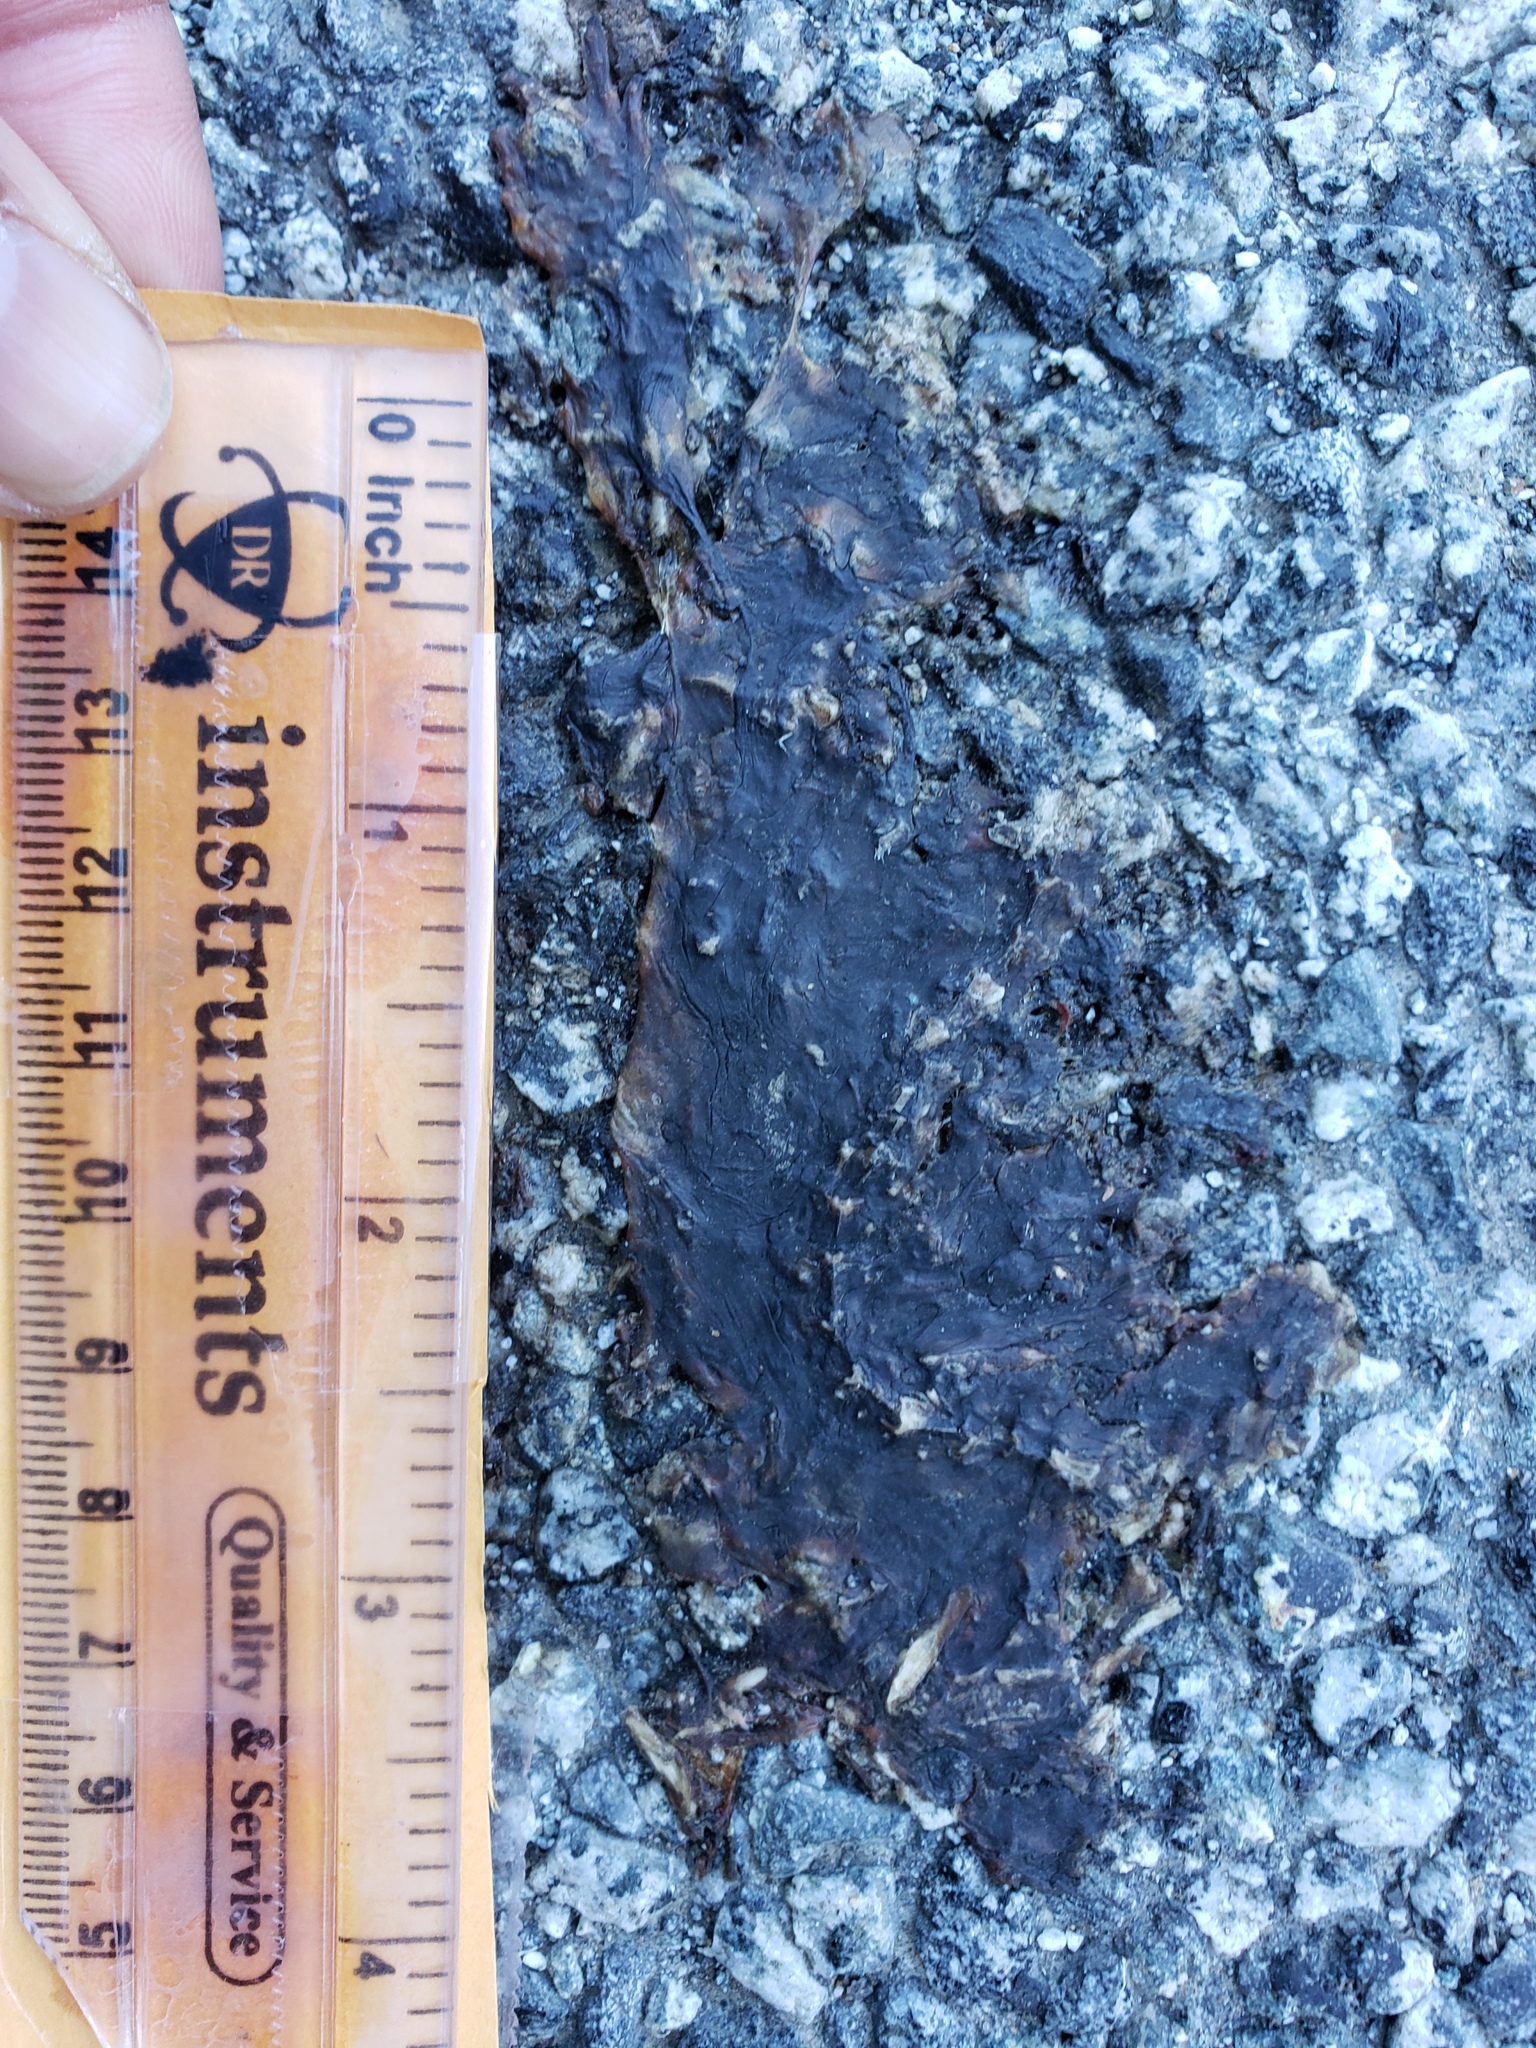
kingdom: Animalia
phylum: Chordata
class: Amphibia
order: Caudata
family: Salamandridae
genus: Taricha
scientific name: Taricha
